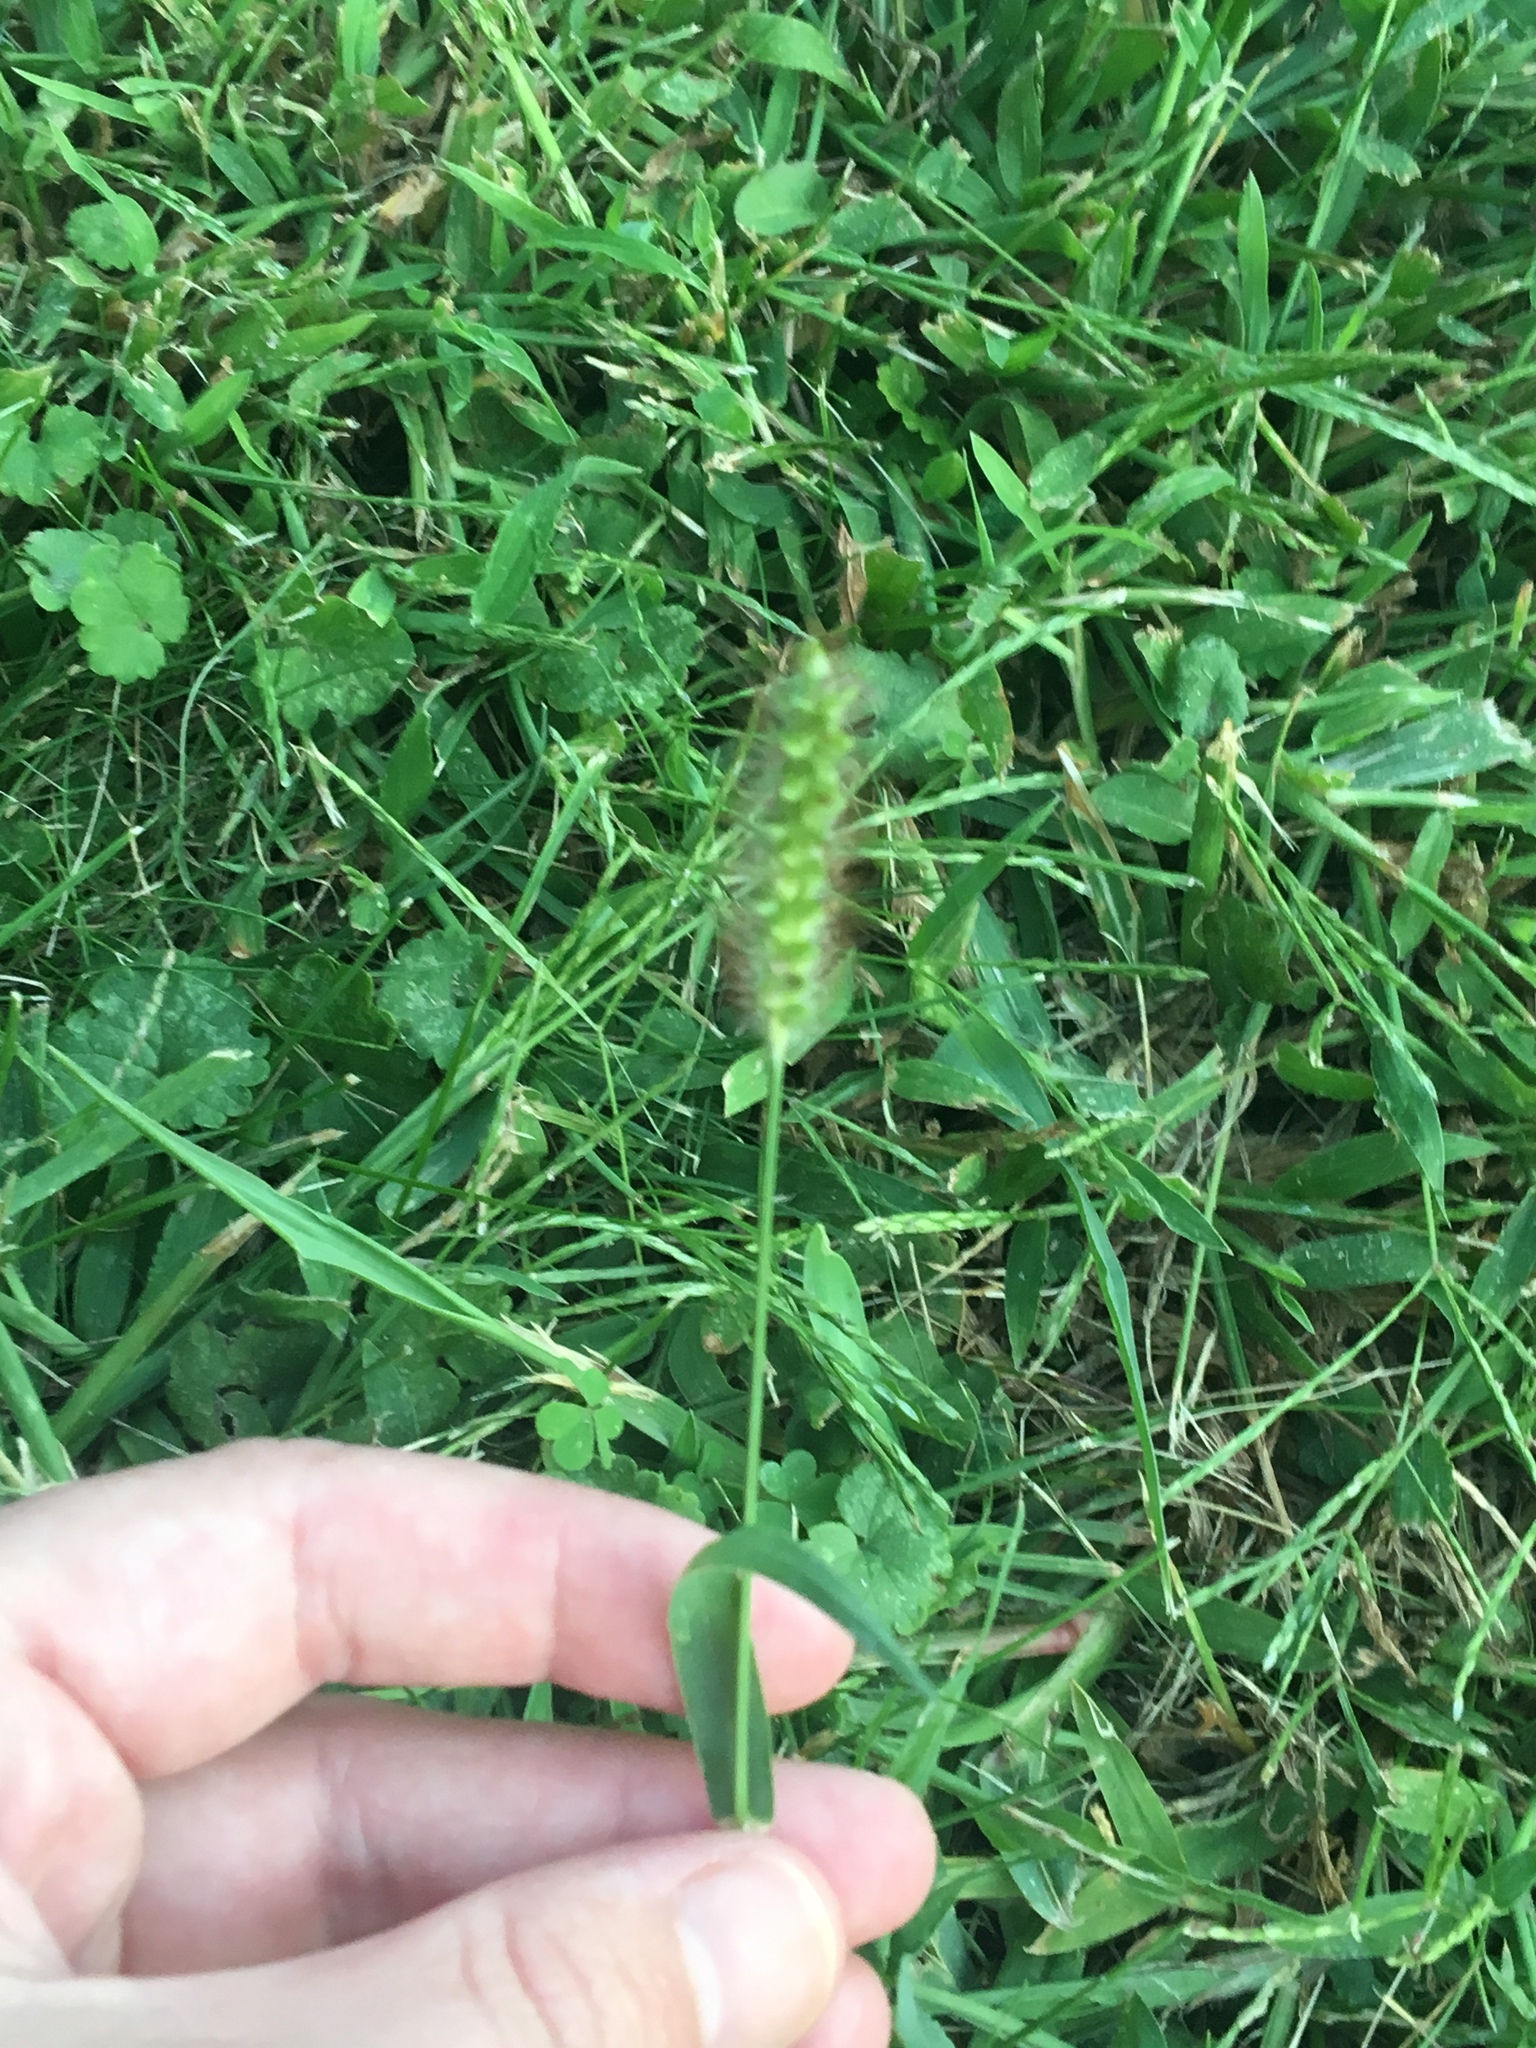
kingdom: Plantae
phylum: Tracheophyta
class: Liliopsida
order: Poales
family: Poaceae
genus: Setaria
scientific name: Setaria pumila
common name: Yellow bristle-grass
